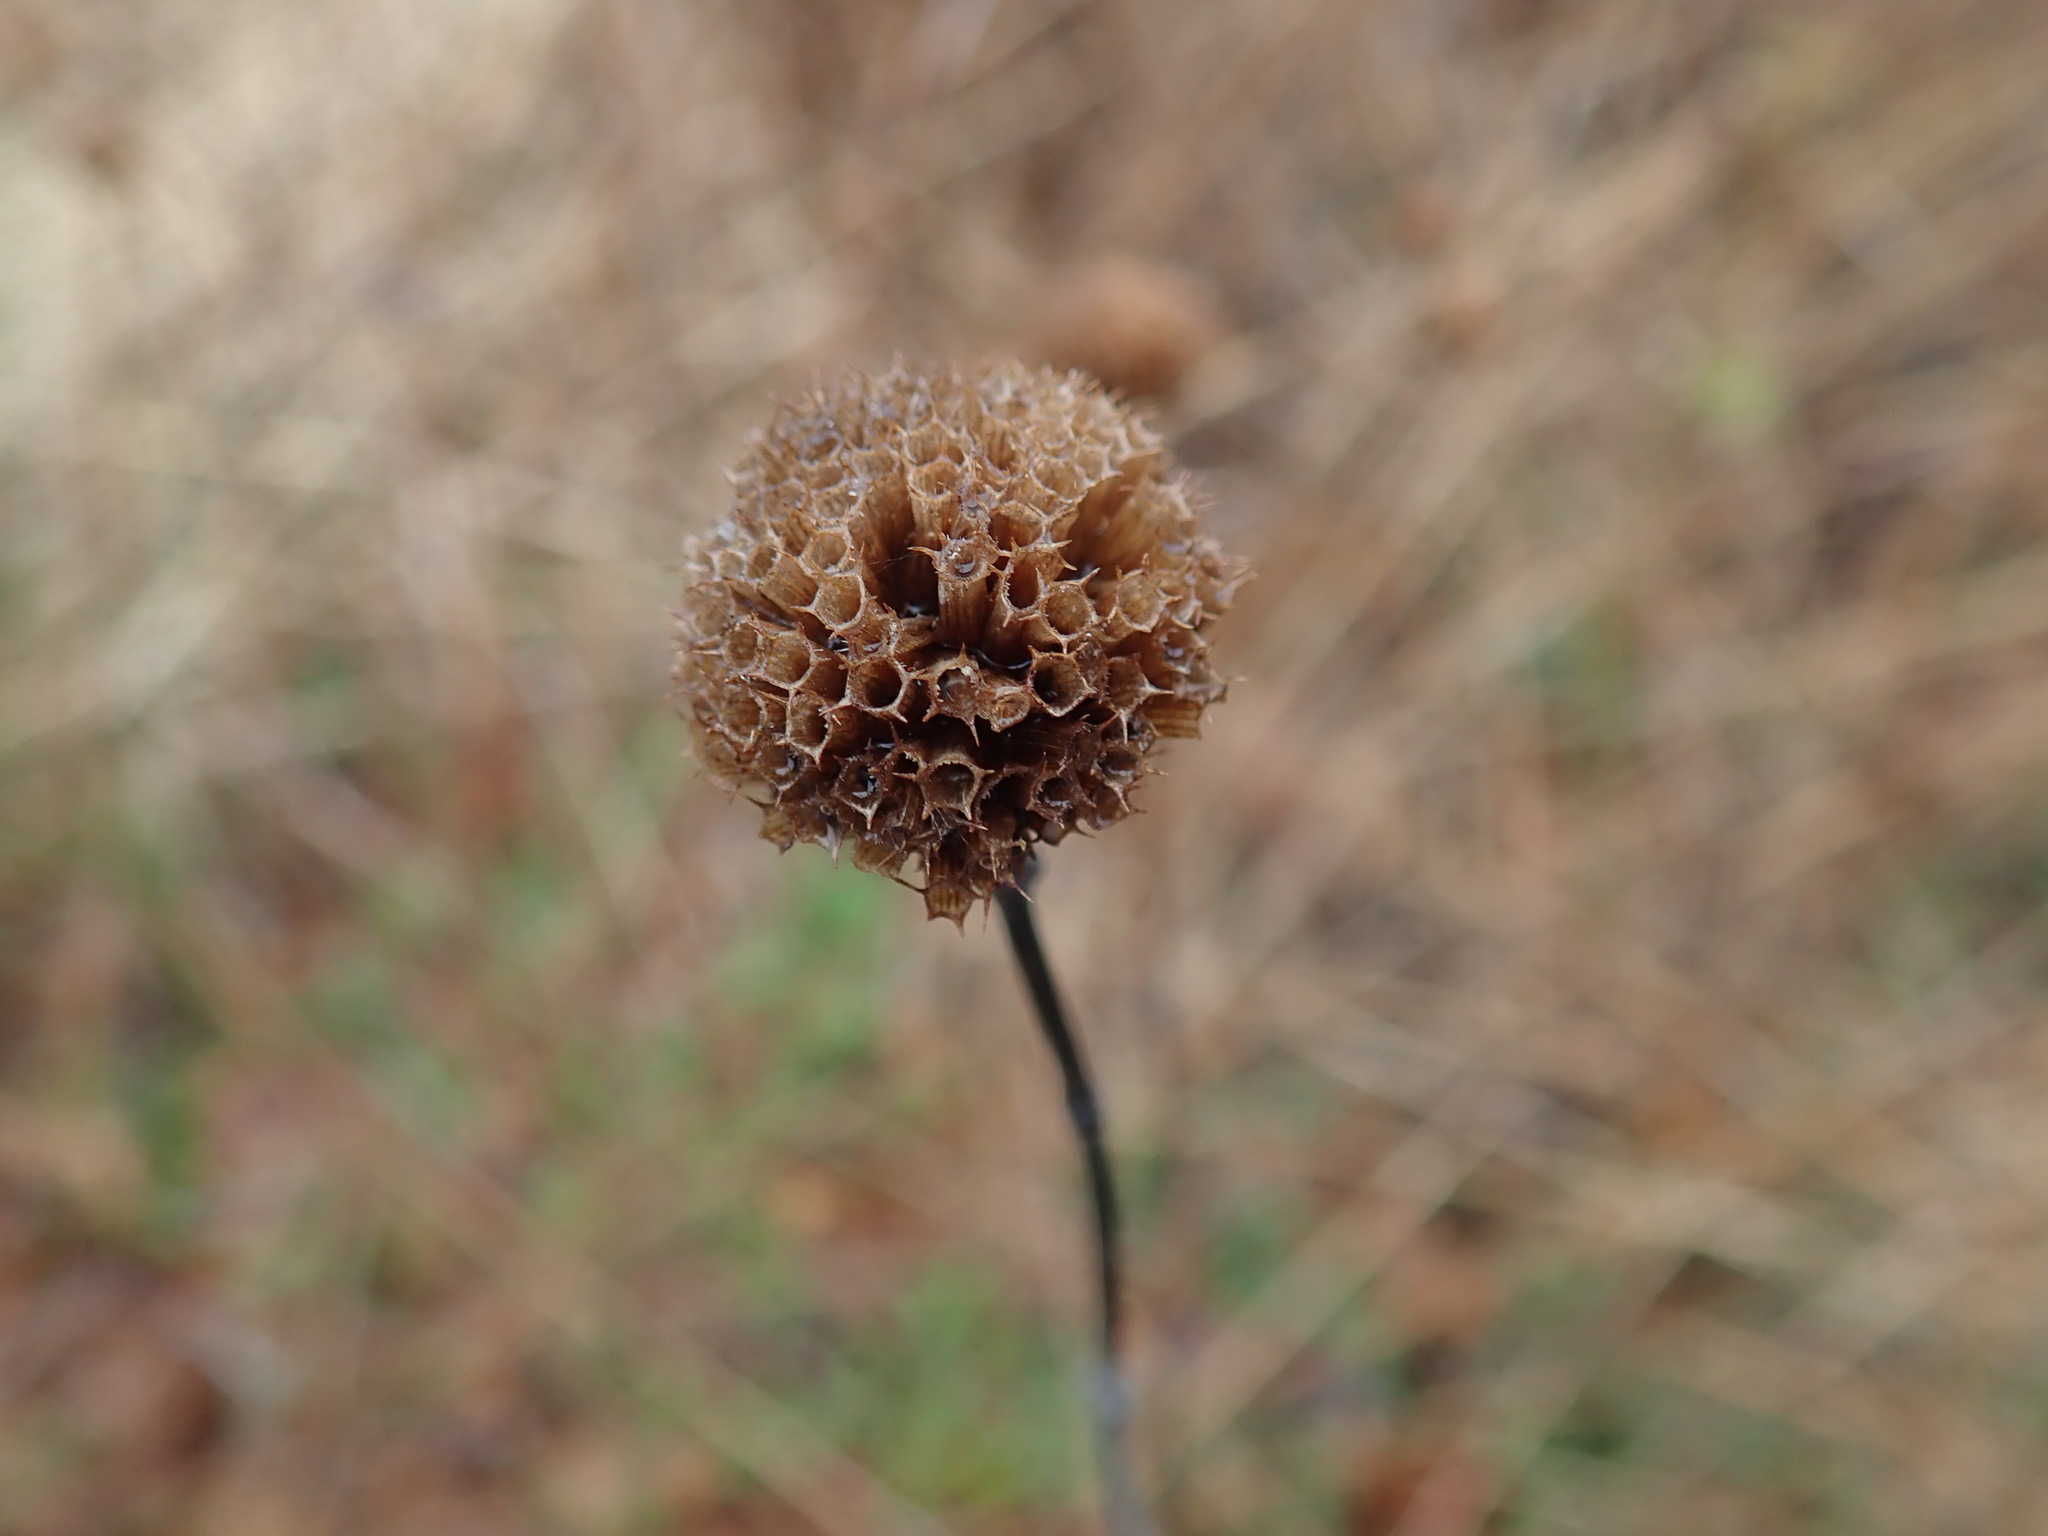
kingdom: Plantae
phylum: Tracheophyta
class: Magnoliopsida
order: Lamiales
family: Lamiaceae
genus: Monarda
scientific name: Monarda fistulosa
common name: Purple beebalm
